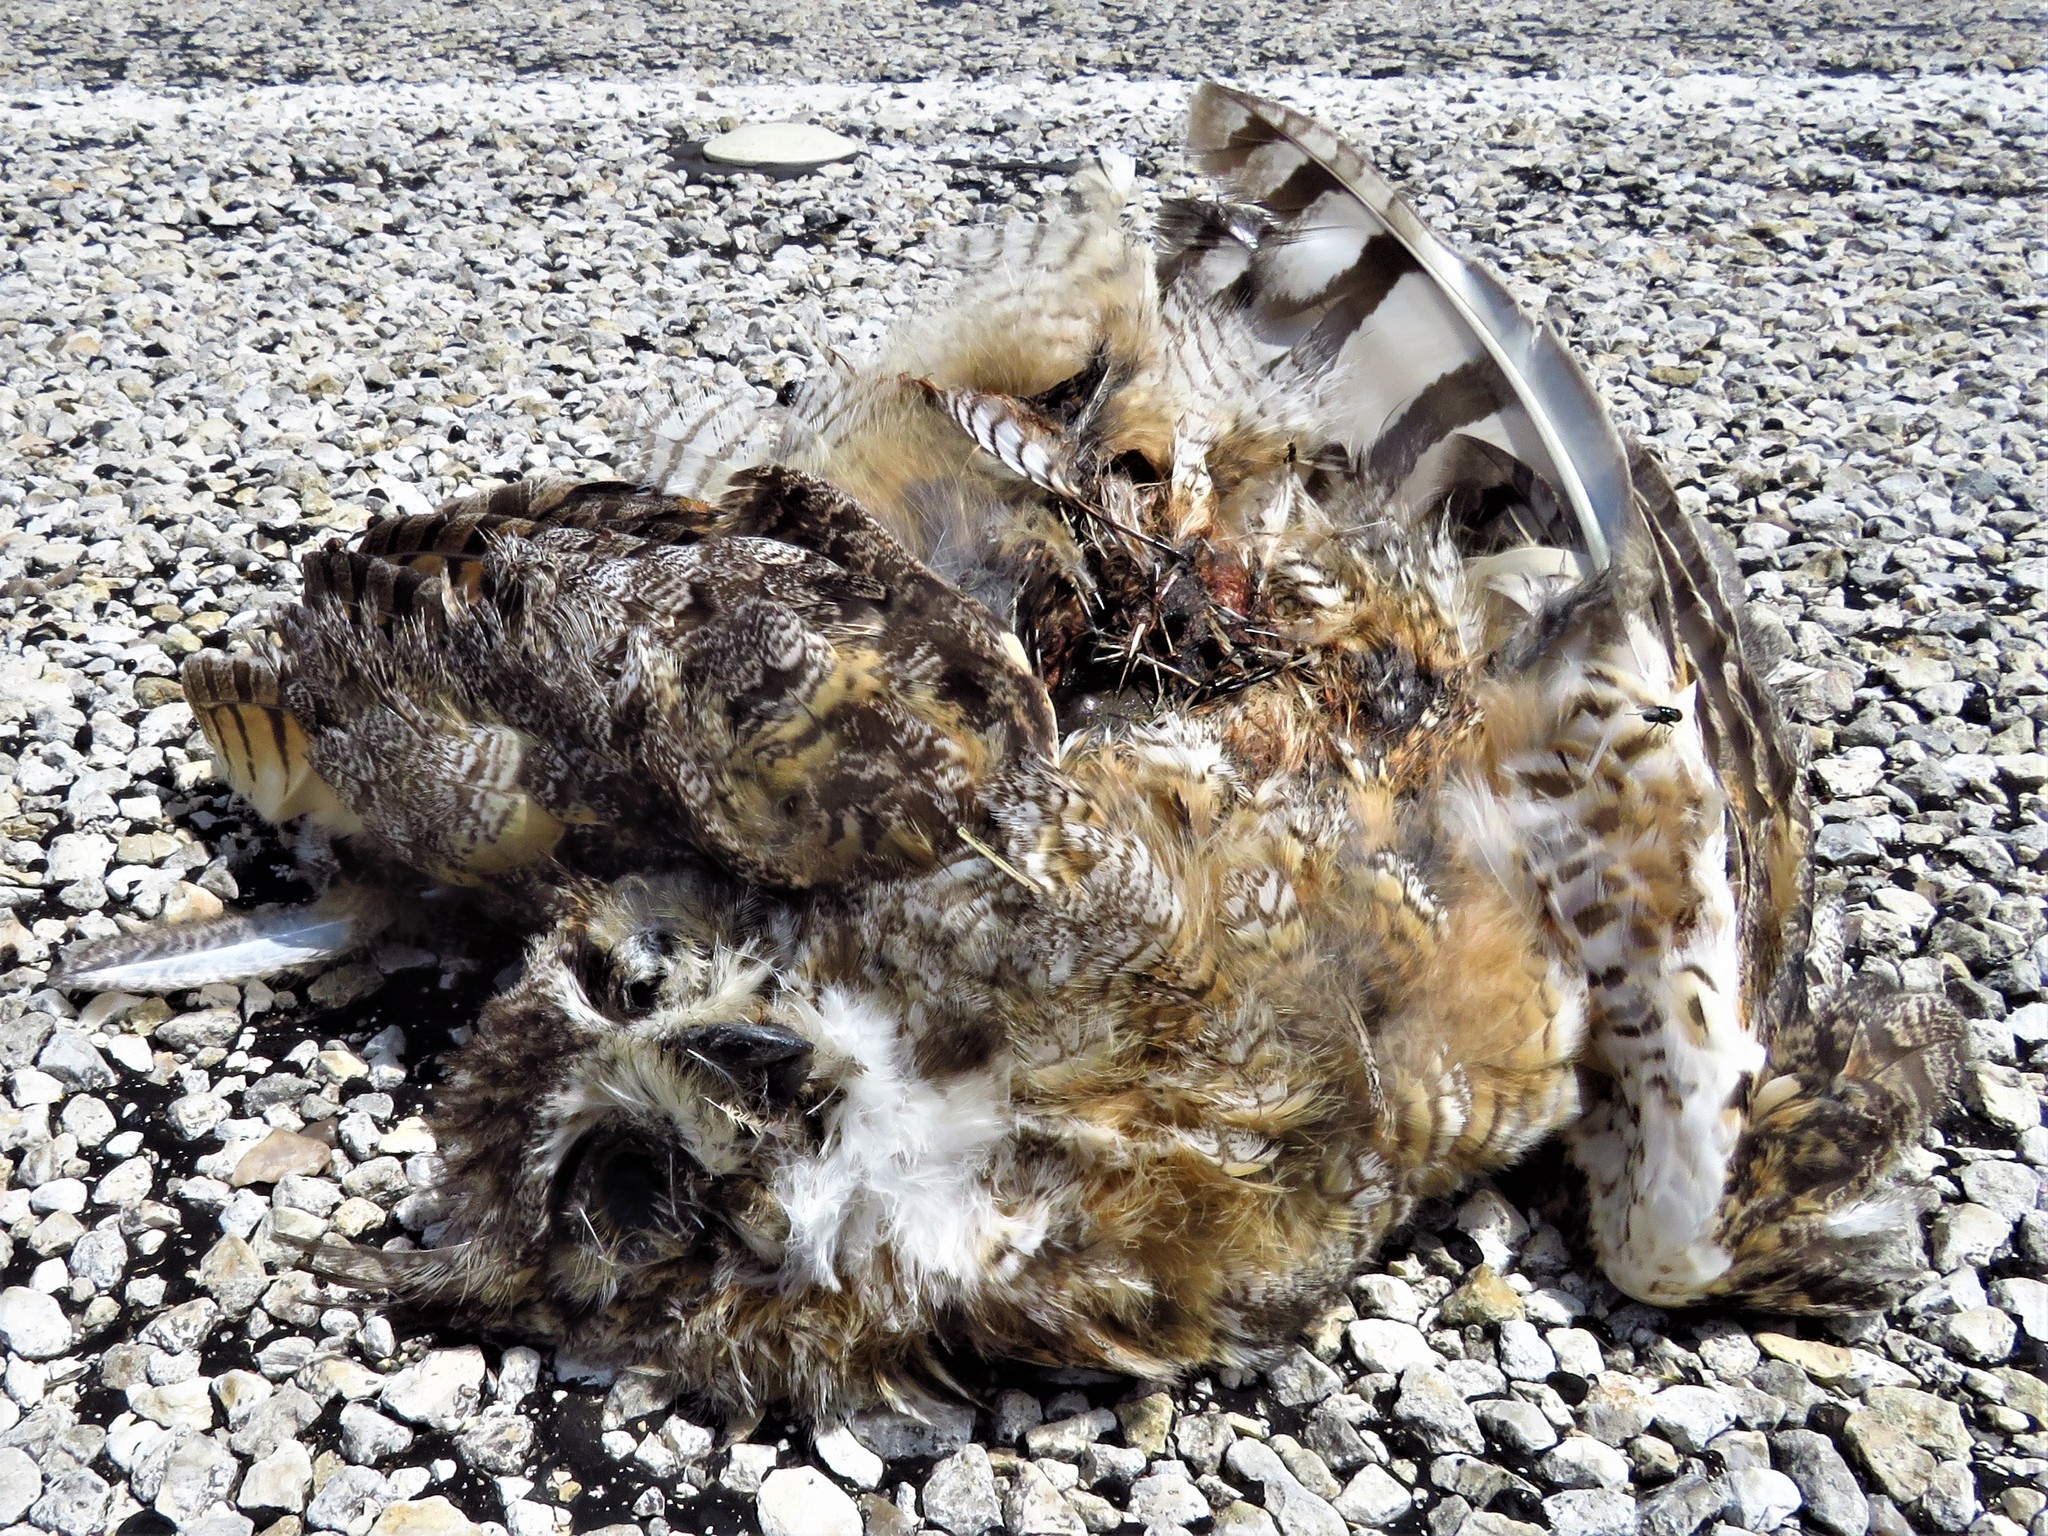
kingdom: Animalia
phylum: Chordata
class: Aves
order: Strigiformes
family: Strigidae
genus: Bubo
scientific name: Bubo virginianus
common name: Great horned owl
